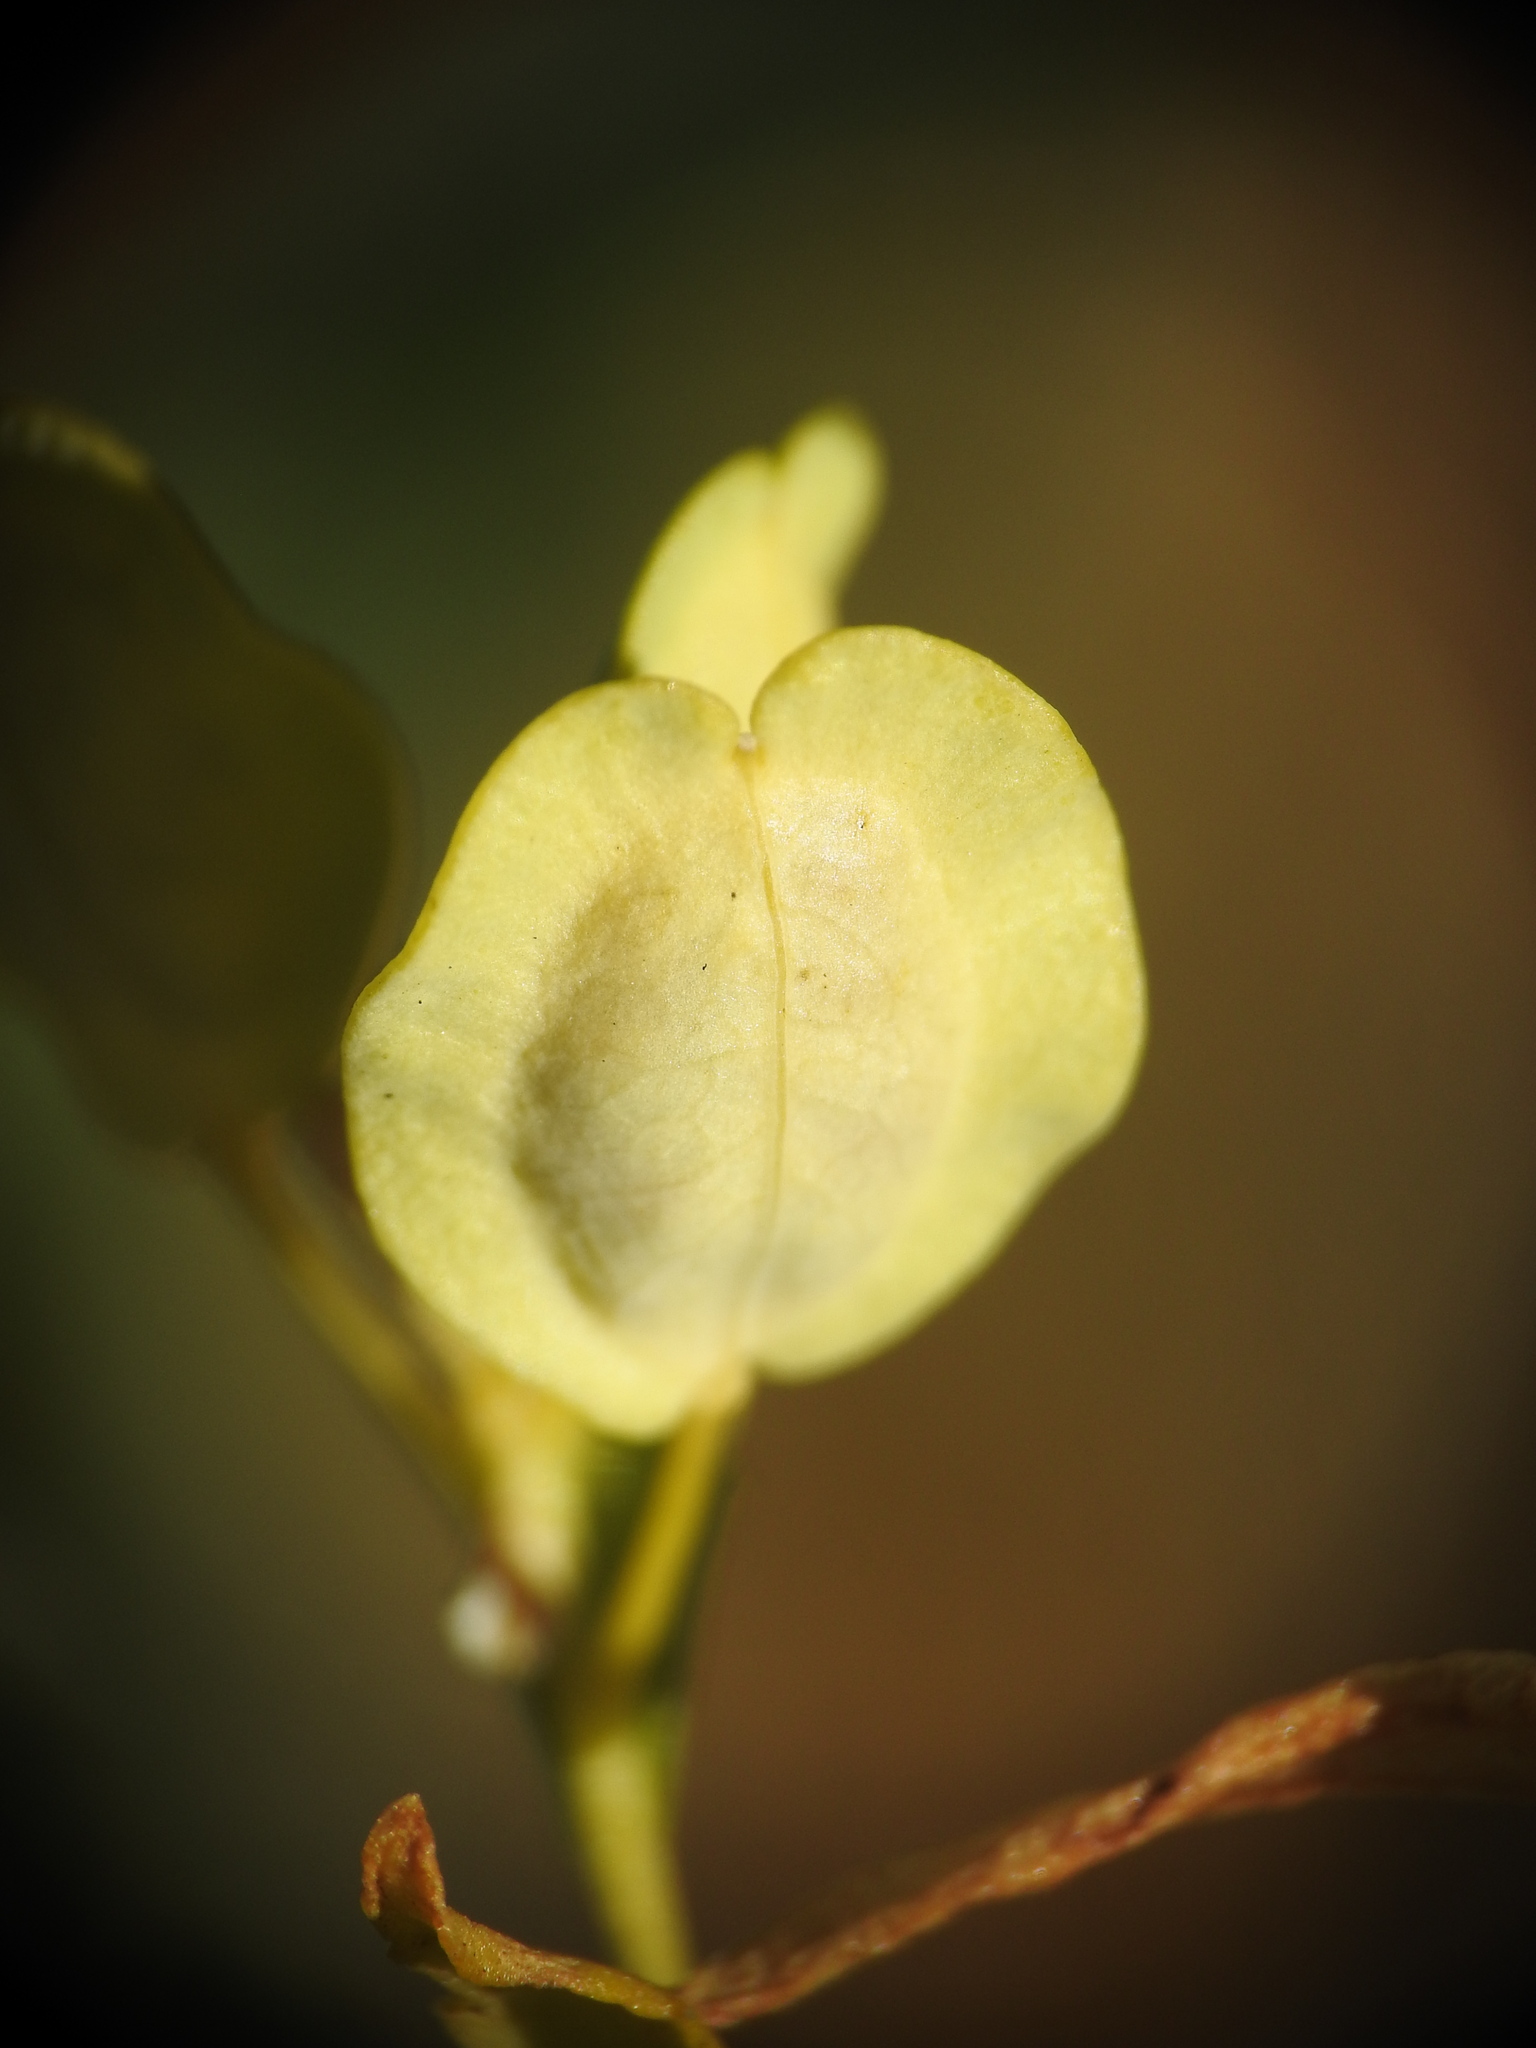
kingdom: Plantae
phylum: Tracheophyta
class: Magnoliopsida
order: Brassicales
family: Brassicaceae
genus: Thlaspi
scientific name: Thlaspi arvense
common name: Field pennycress
